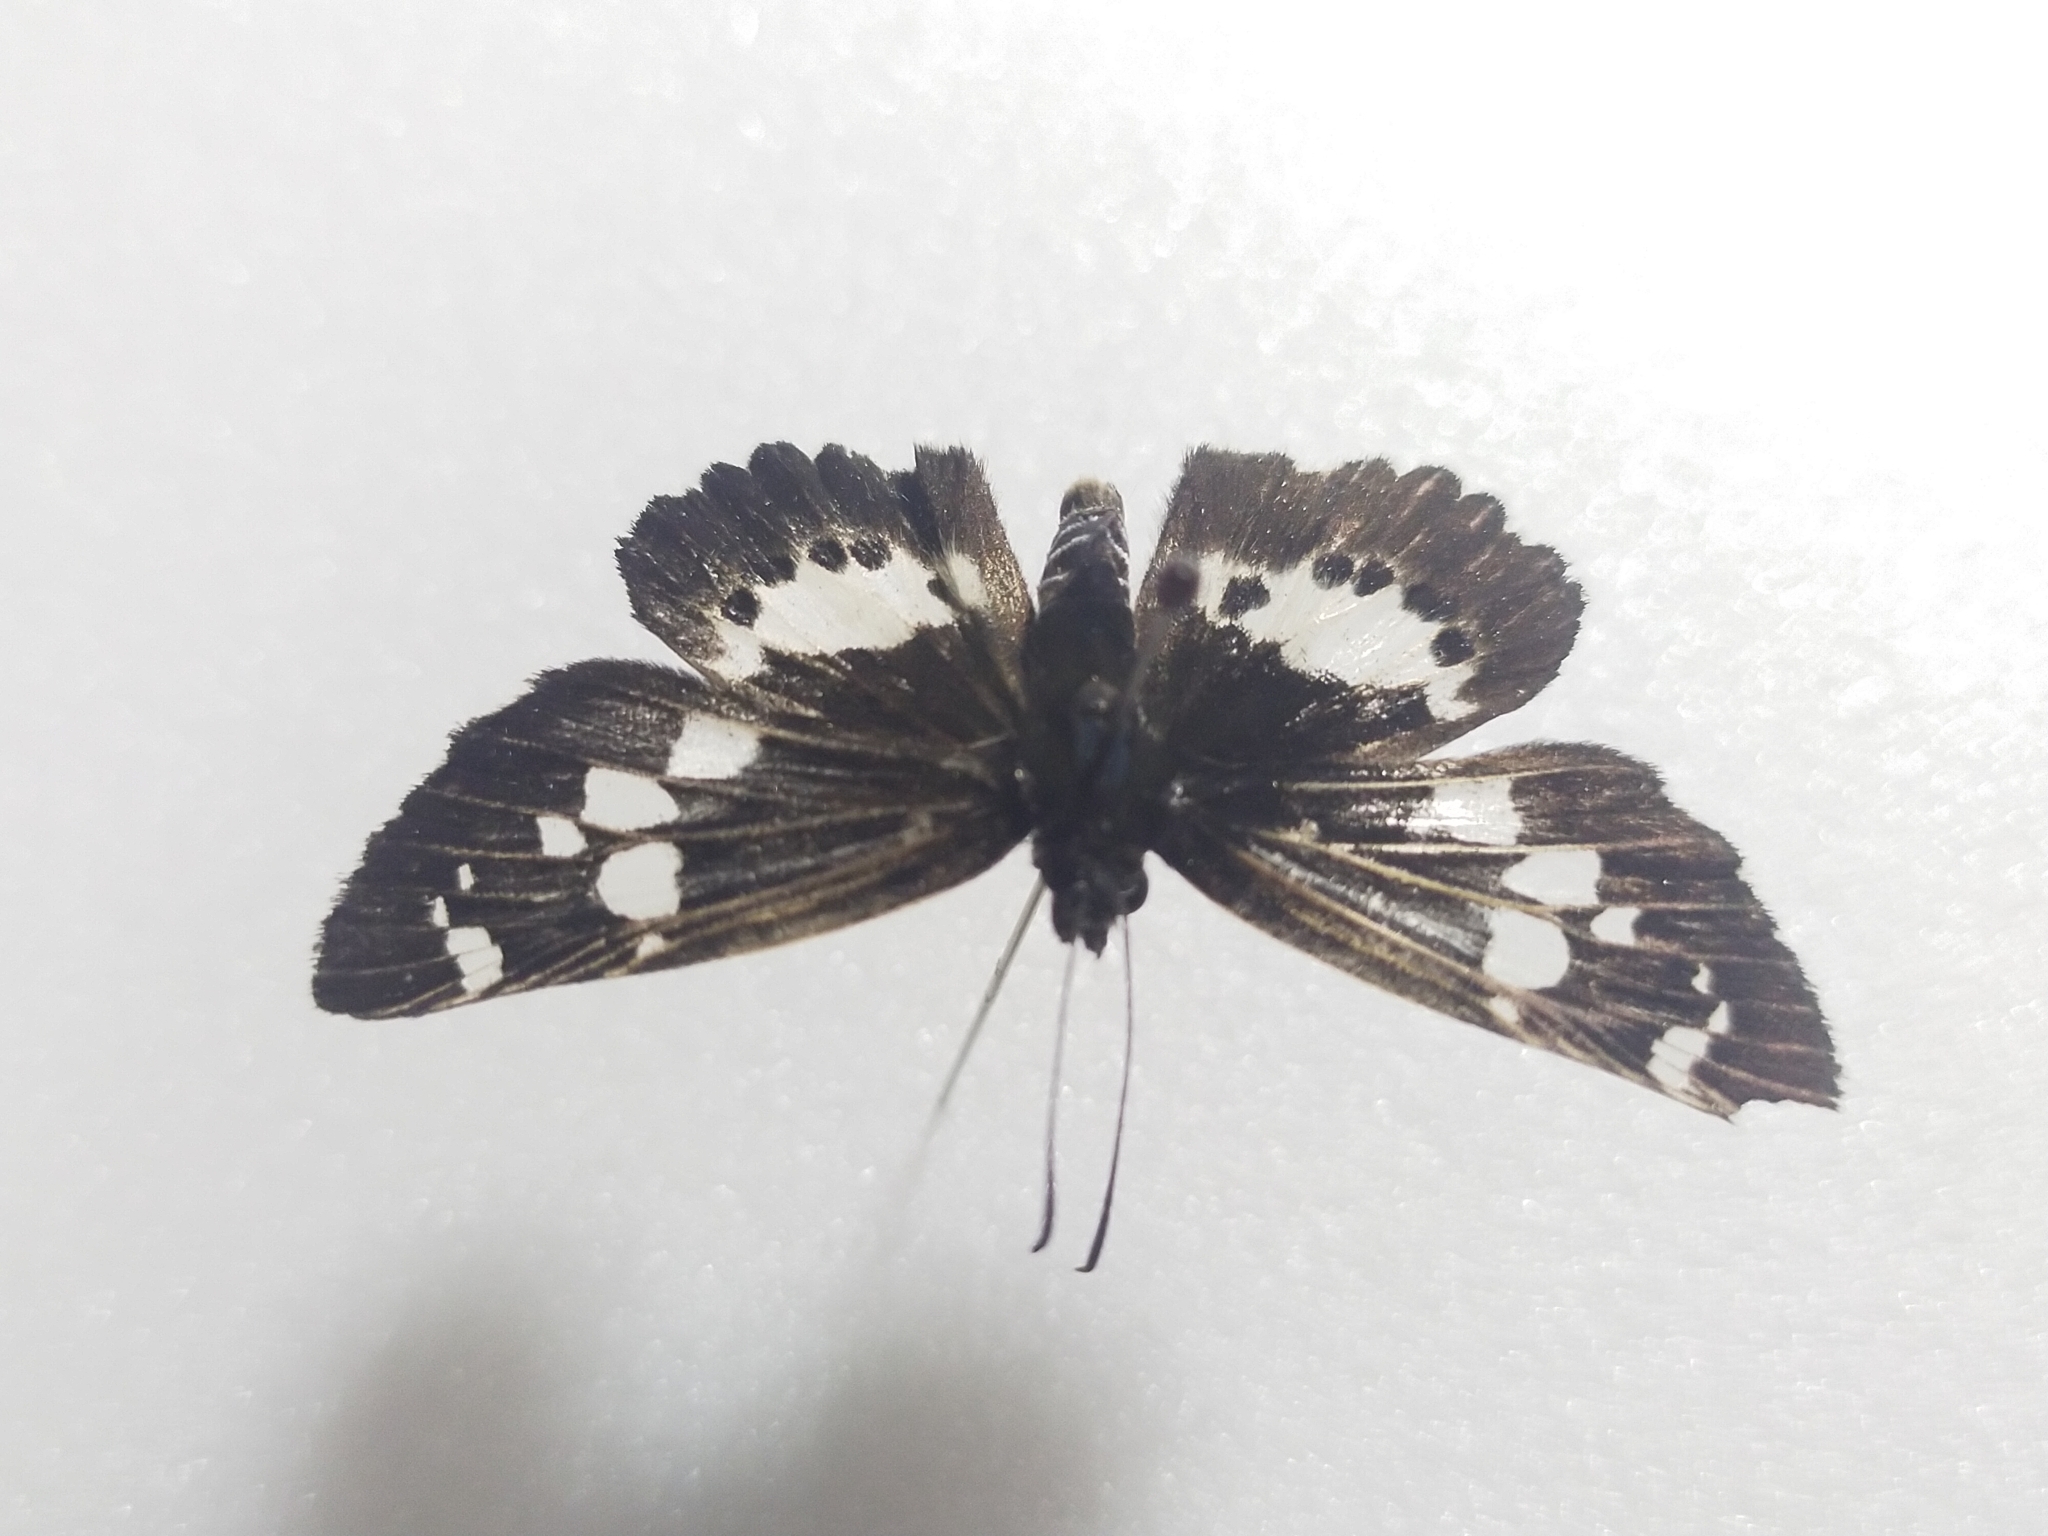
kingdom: Animalia
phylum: Arthropoda
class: Insecta
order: Lepidoptera
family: Hesperiidae
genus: Daimio
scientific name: Daimio tethys
